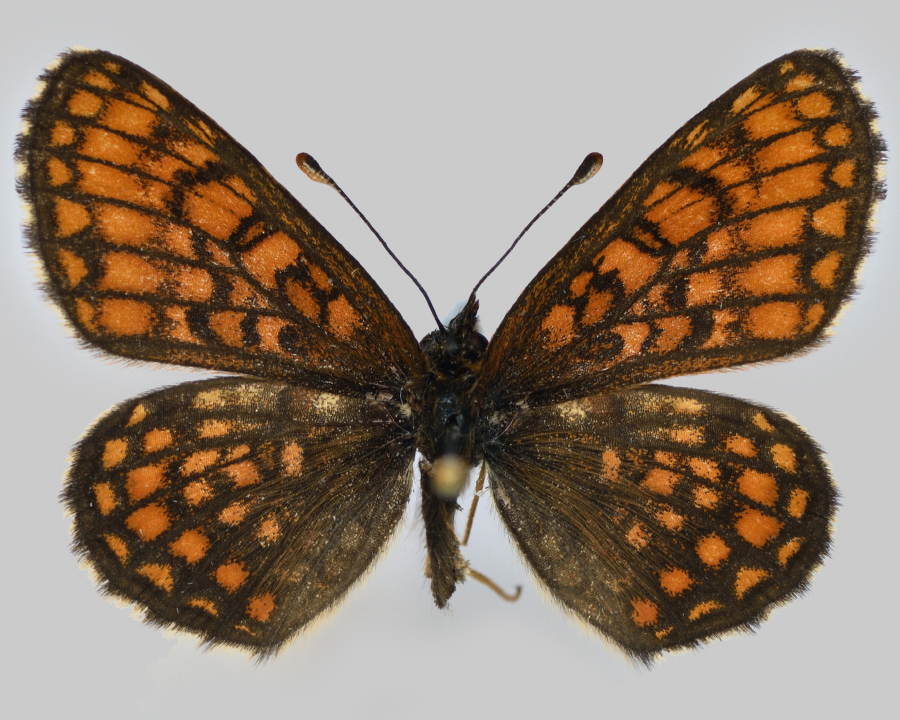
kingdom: Animalia
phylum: Arthropoda
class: Insecta
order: Lepidoptera
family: Nymphalidae
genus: Mellicta
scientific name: Mellicta britomartis
